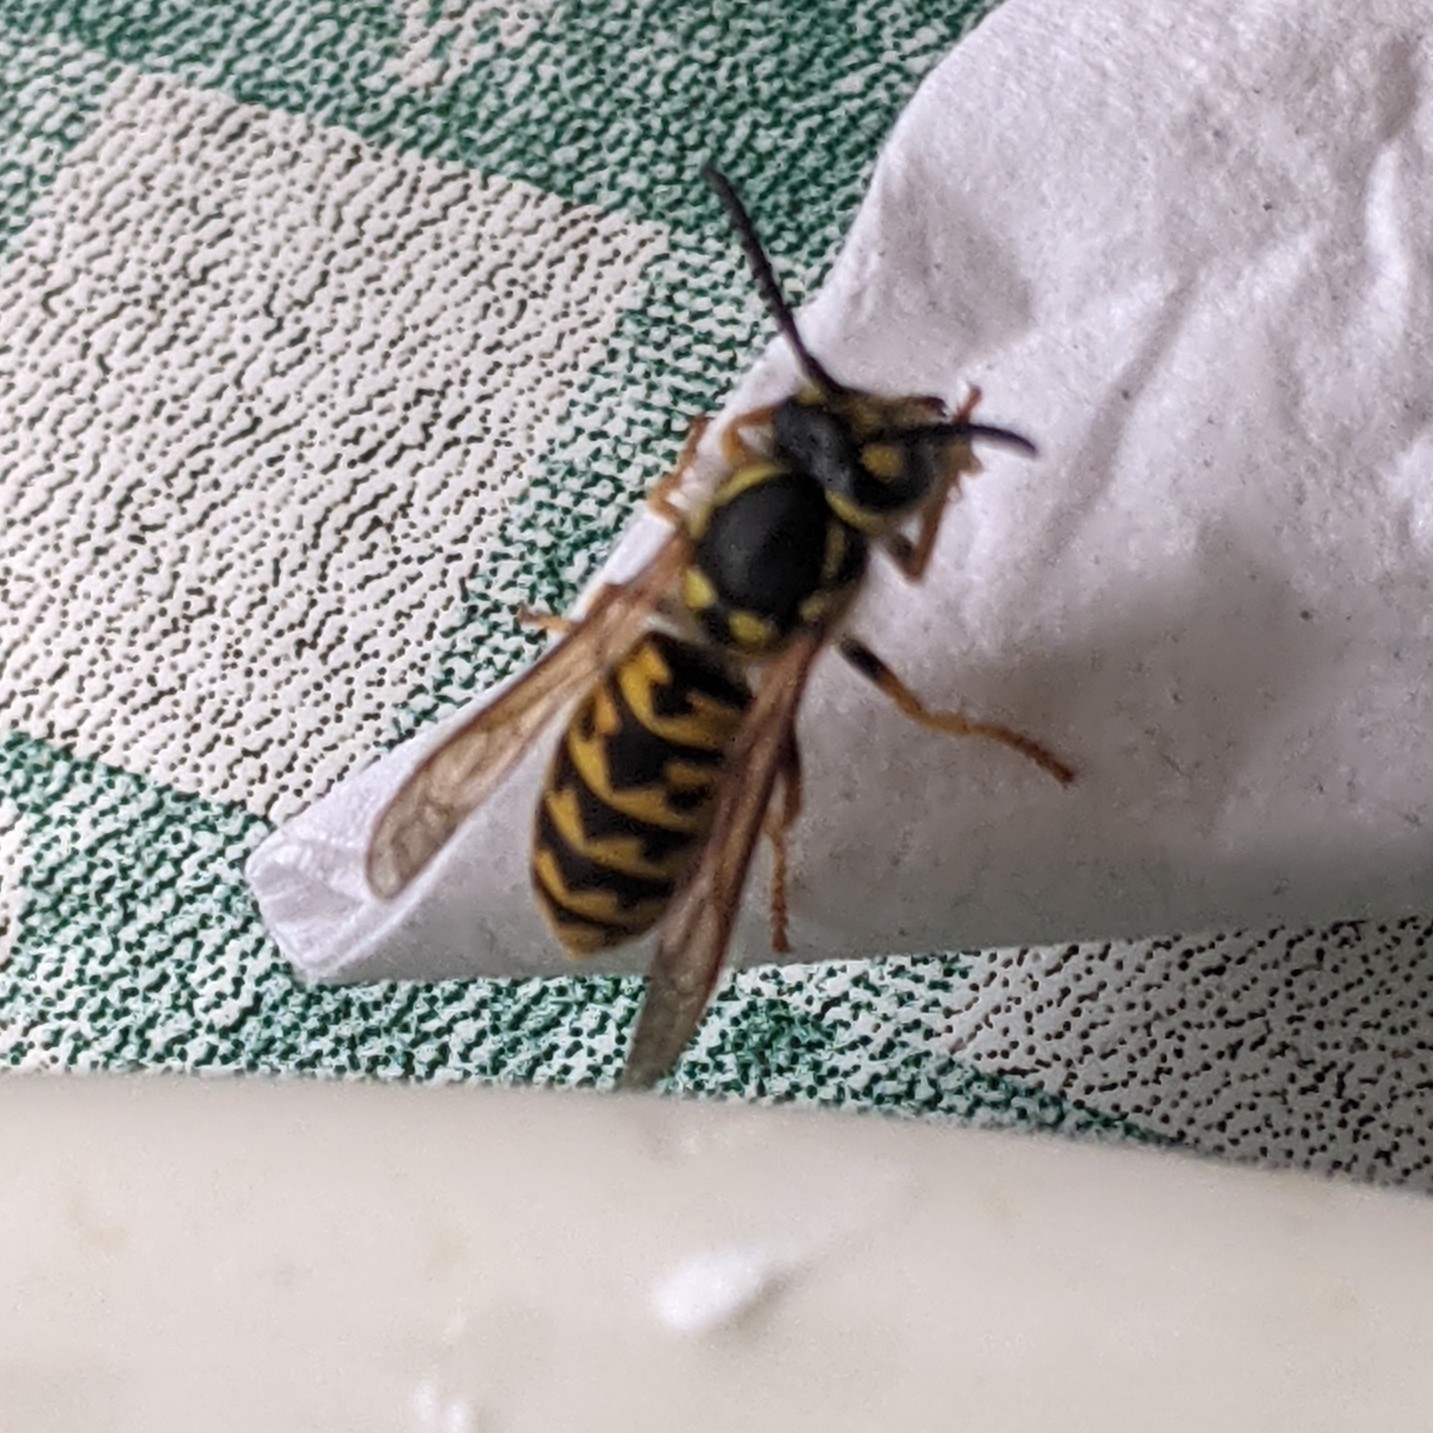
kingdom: Animalia
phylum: Arthropoda
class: Insecta
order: Hymenoptera
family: Vespidae
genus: Vespula
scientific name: Vespula germanica
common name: German wasp
